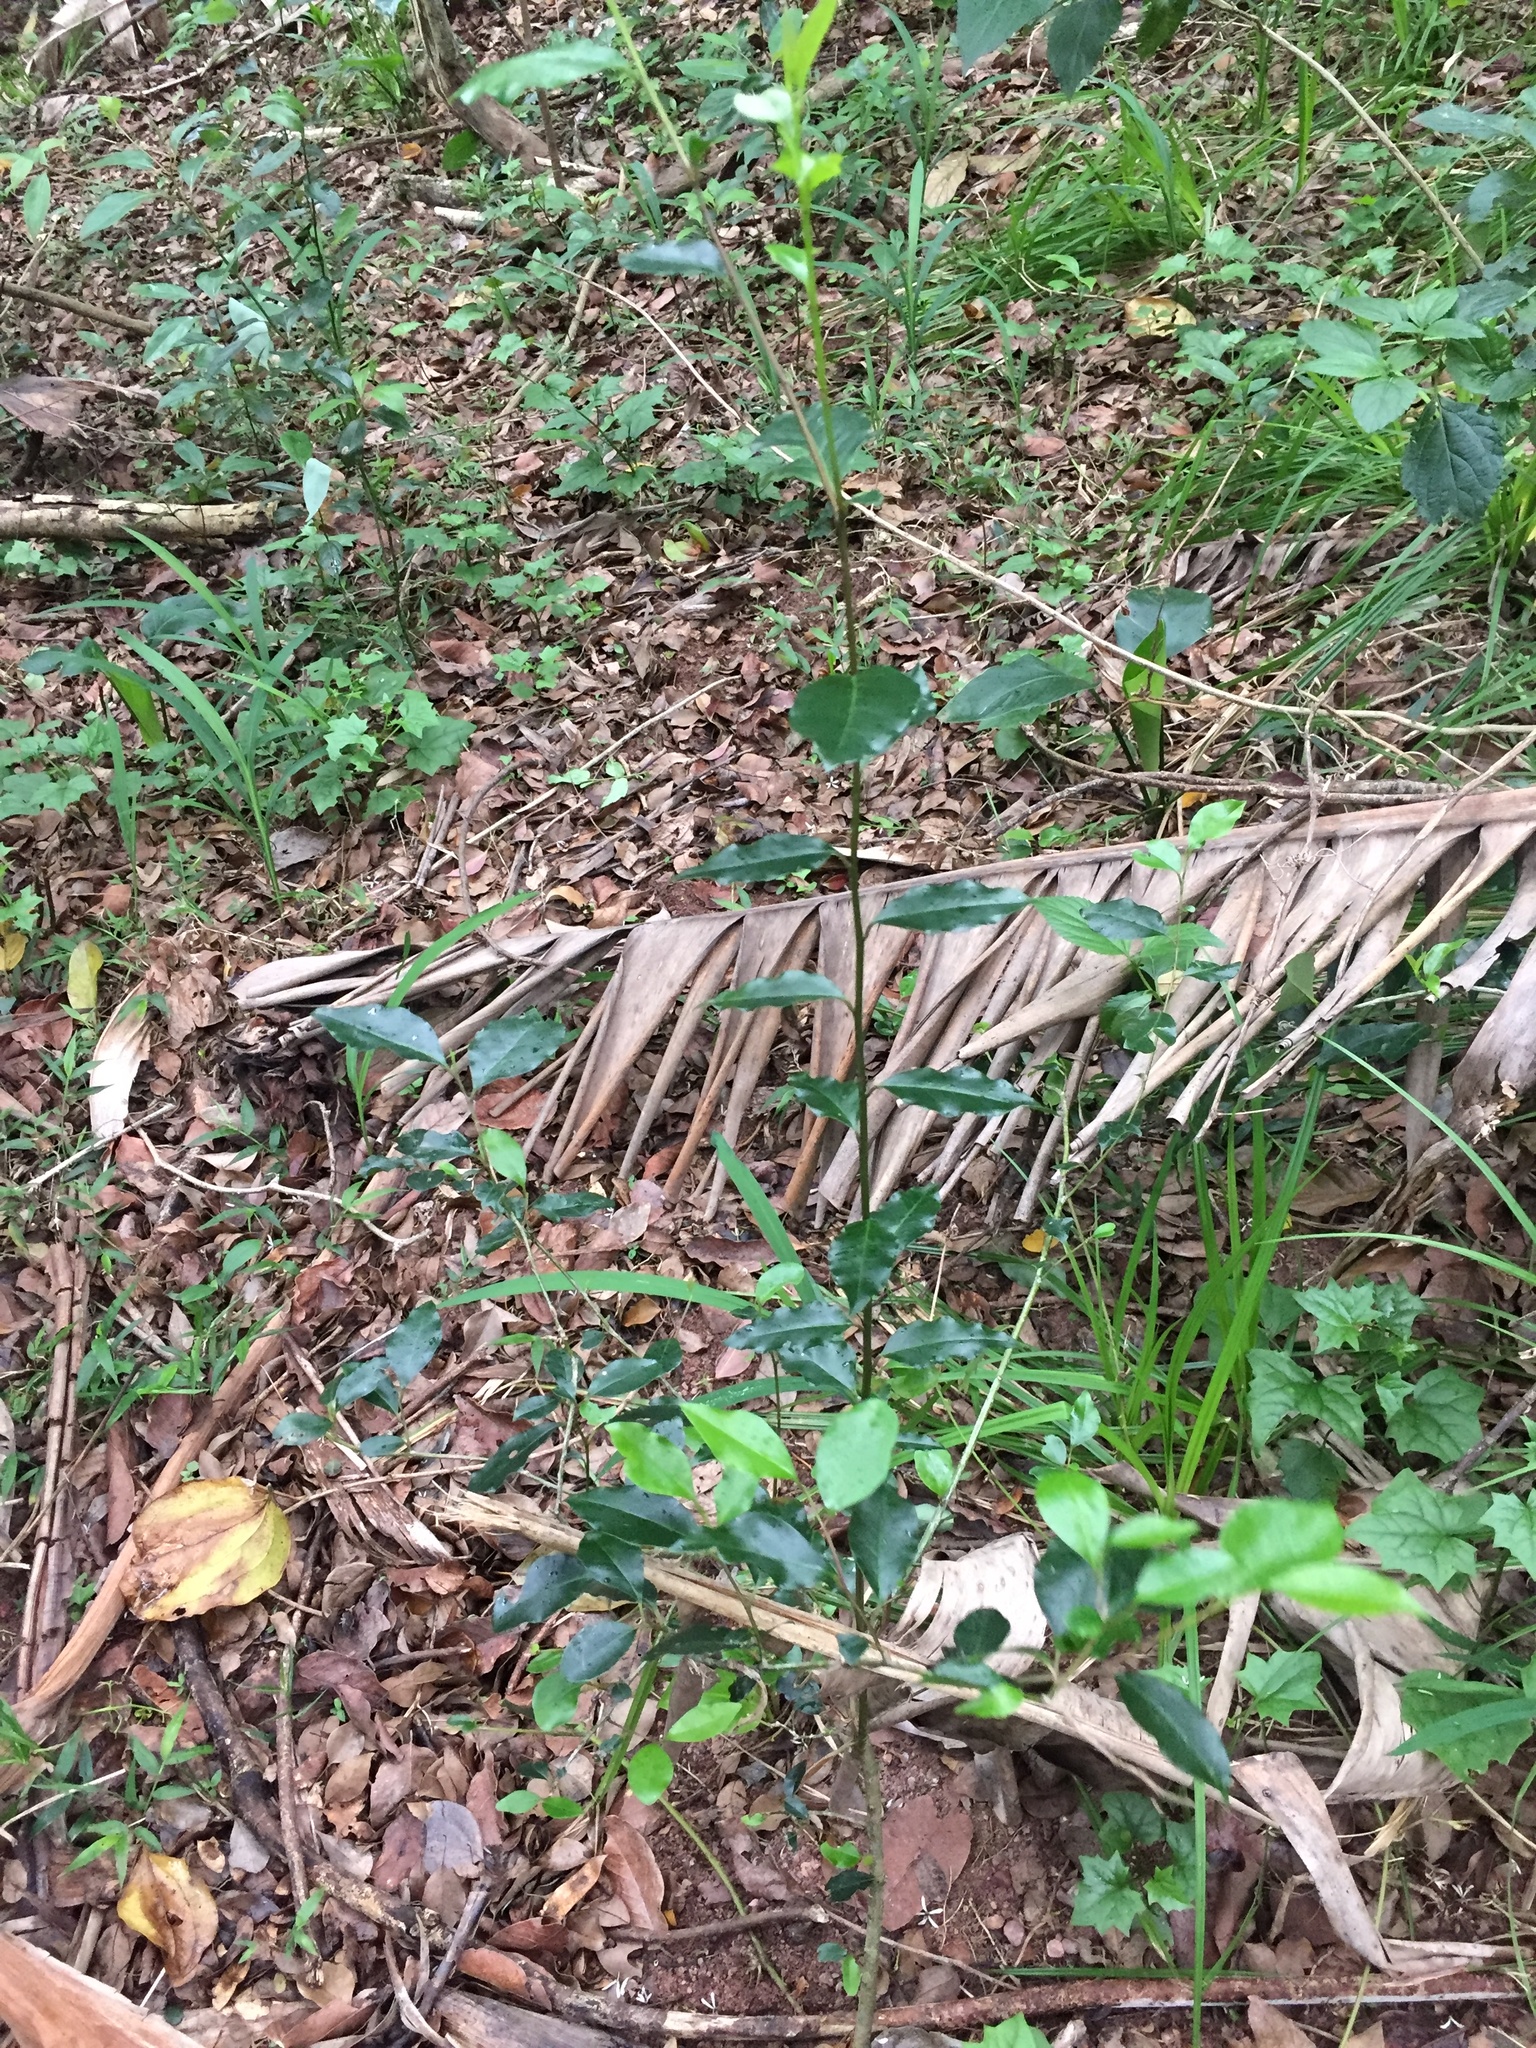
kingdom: Plantae
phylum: Tracheophyta
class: Magnoliopsida
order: Metteniusales
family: Metteniusaceae
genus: Apodytes
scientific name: Apodytes dimidiata
